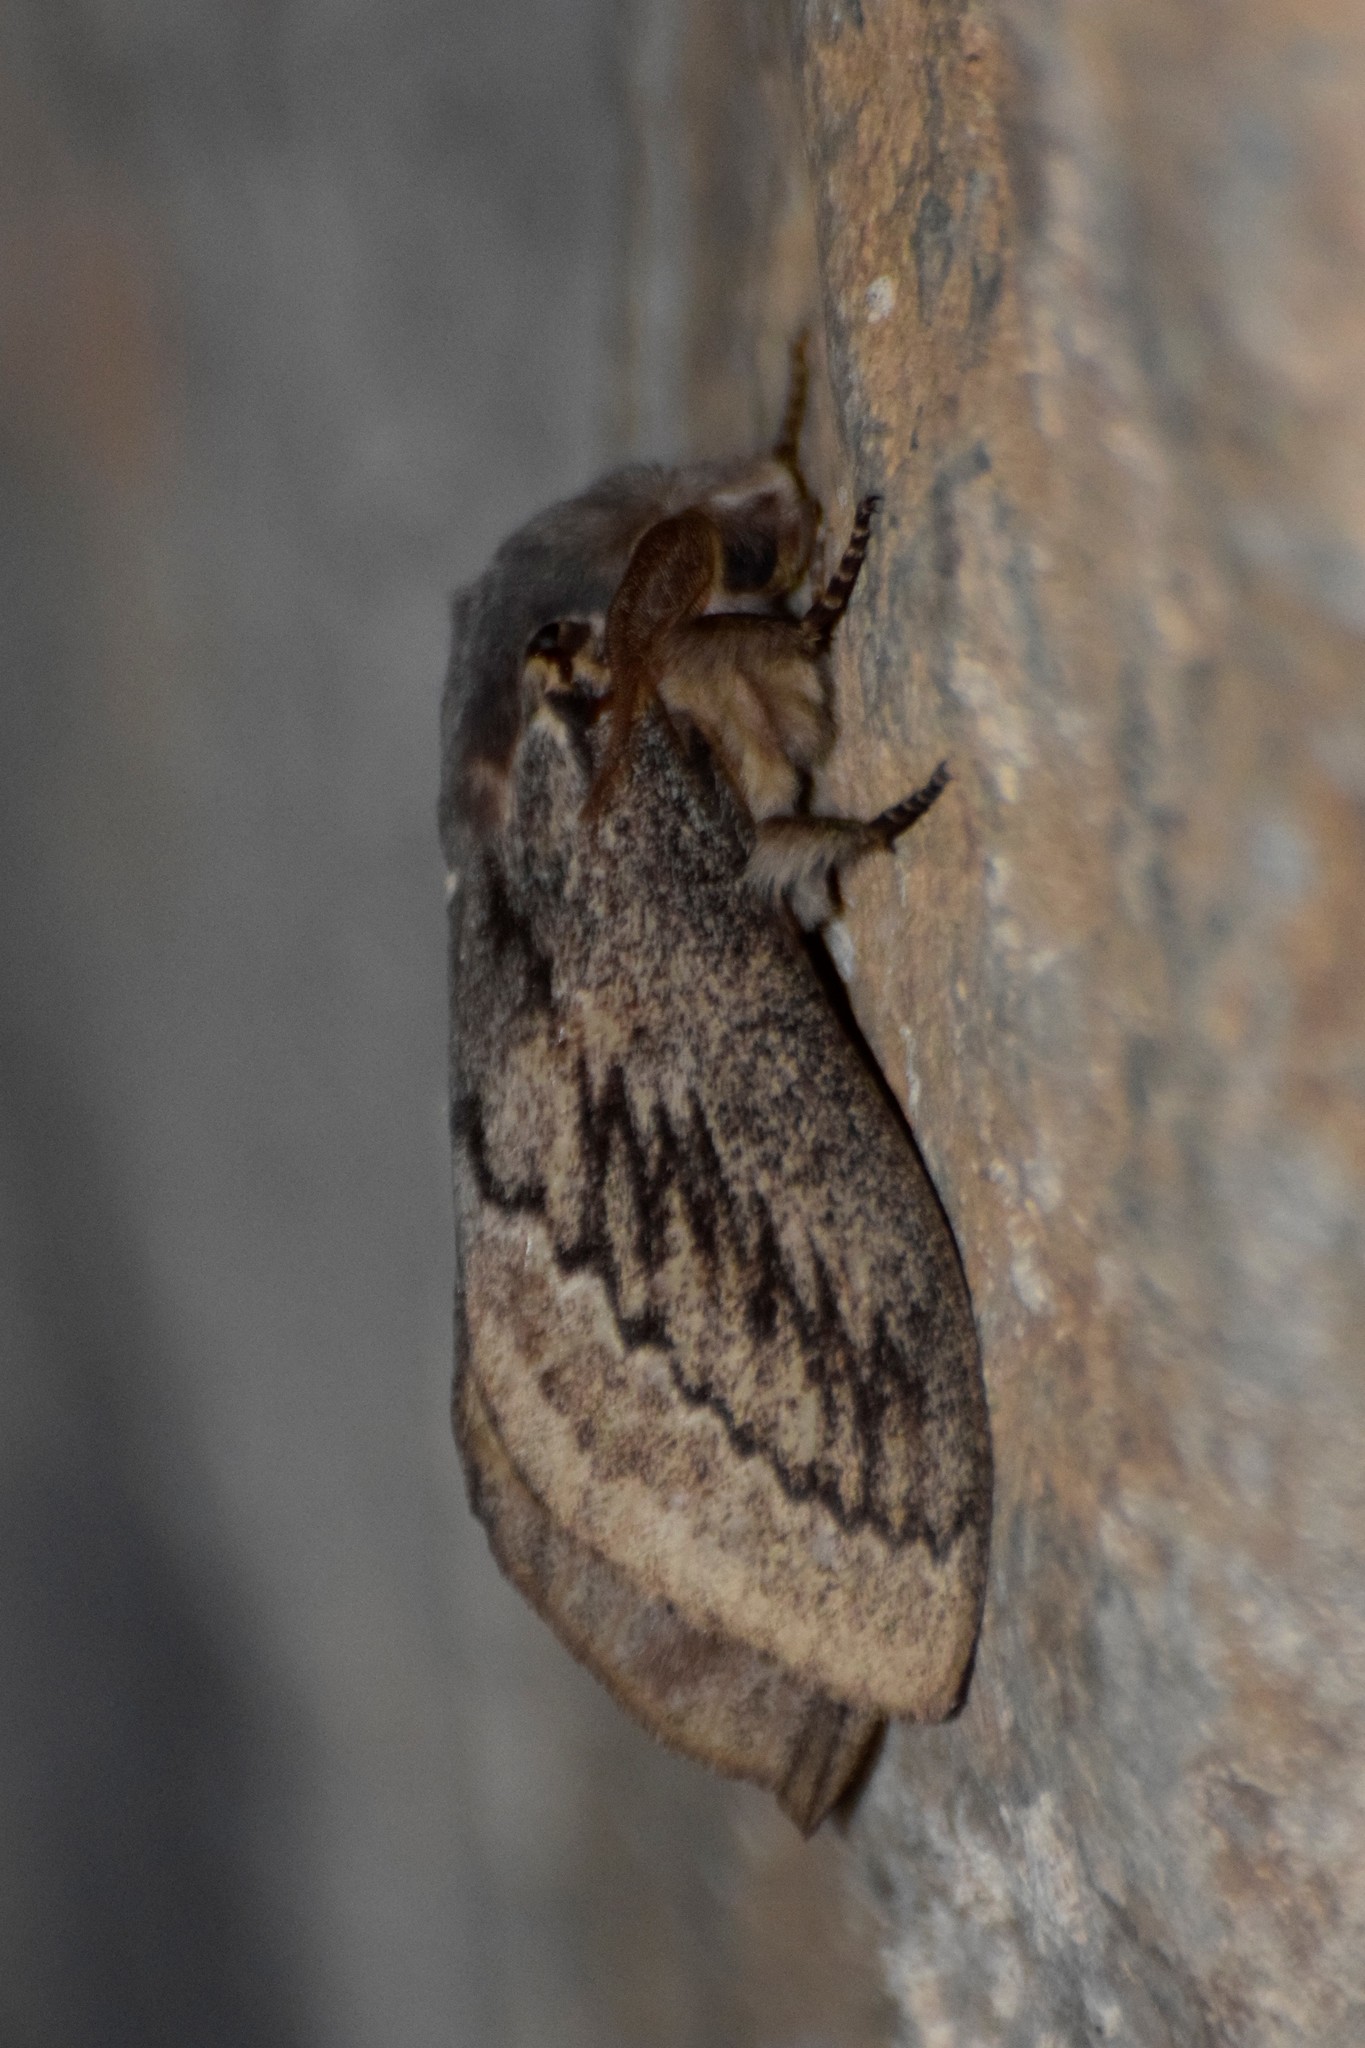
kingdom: Animalia
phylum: Arthropoda
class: Insecta
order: Lepidoptera
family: Lasiocampidae
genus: Pachypasa
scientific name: Pachypasa otus
